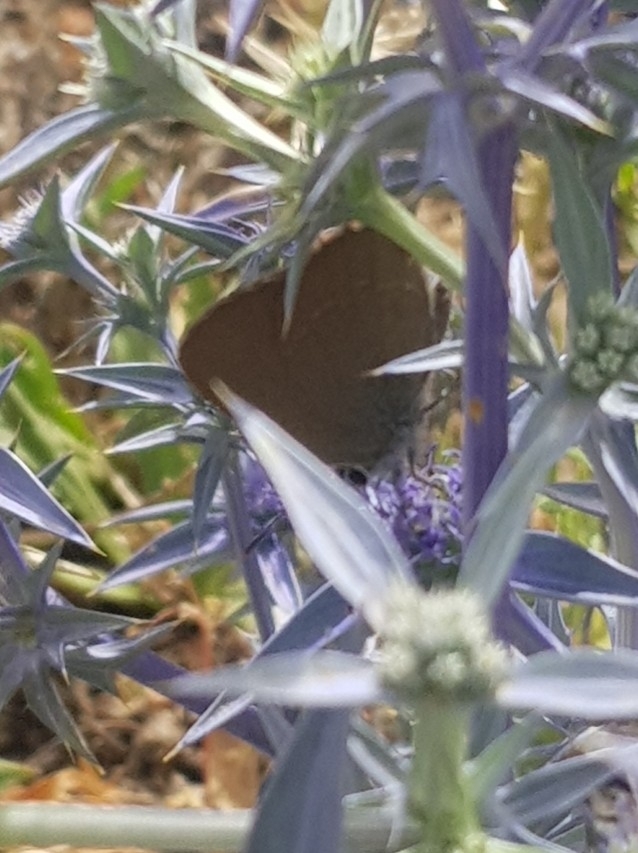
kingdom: Animalia
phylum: Arthropoda
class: Insecta
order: Lepidoptera
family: Lycaenidae
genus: Fixsenia
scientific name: Fixsenia esculi
